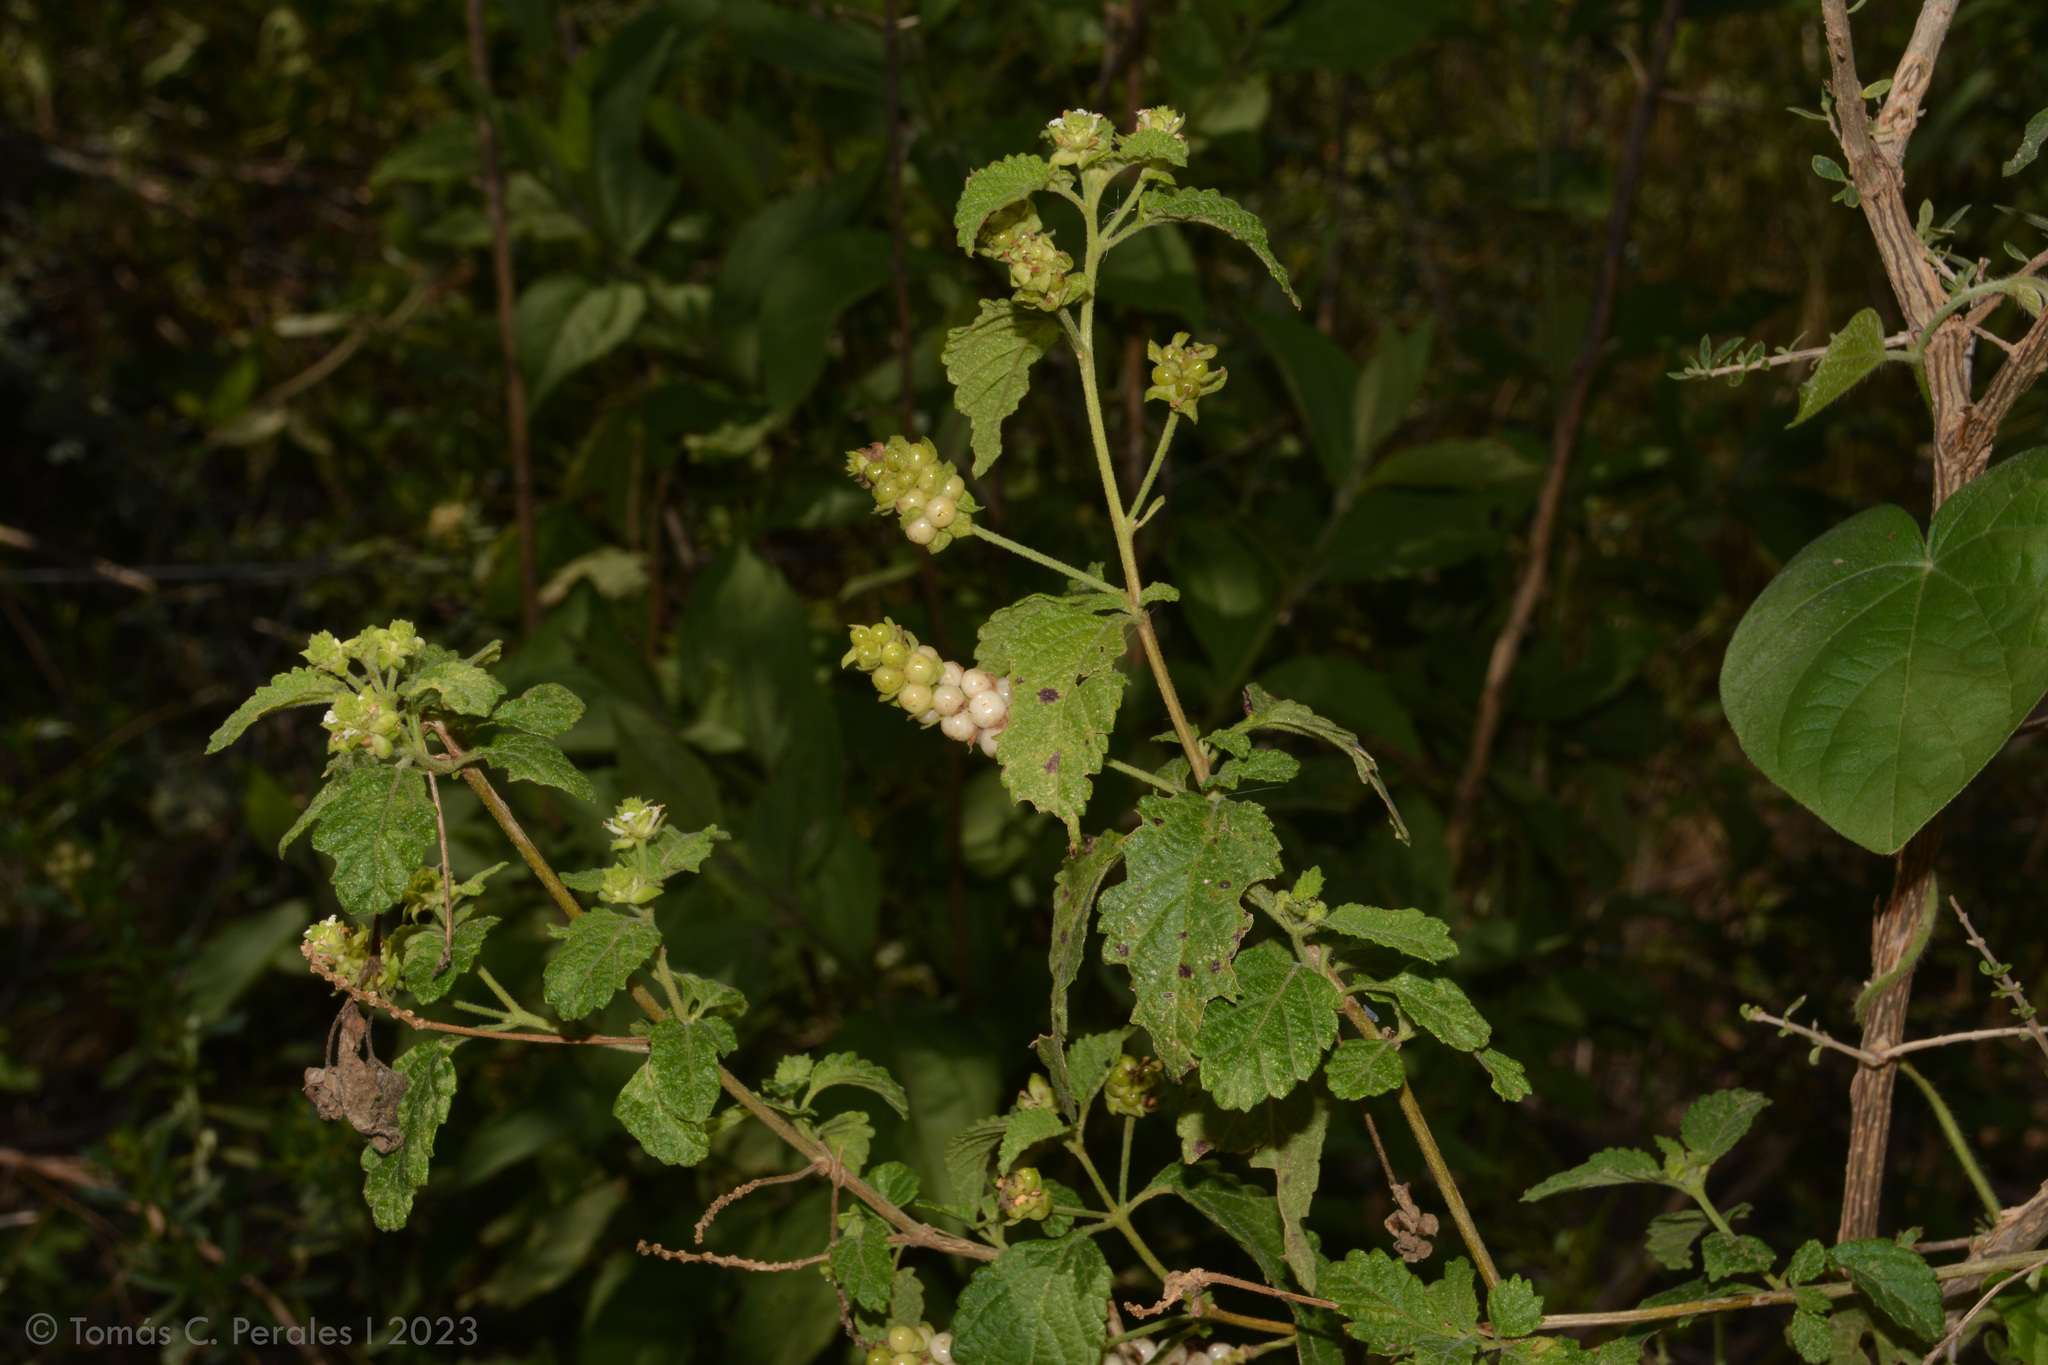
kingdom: Plantae
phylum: Tracheophyta
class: Magnoliopsida
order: Lamiales
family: Verbenaceae
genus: Lantana
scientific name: Lantana grisebachii
